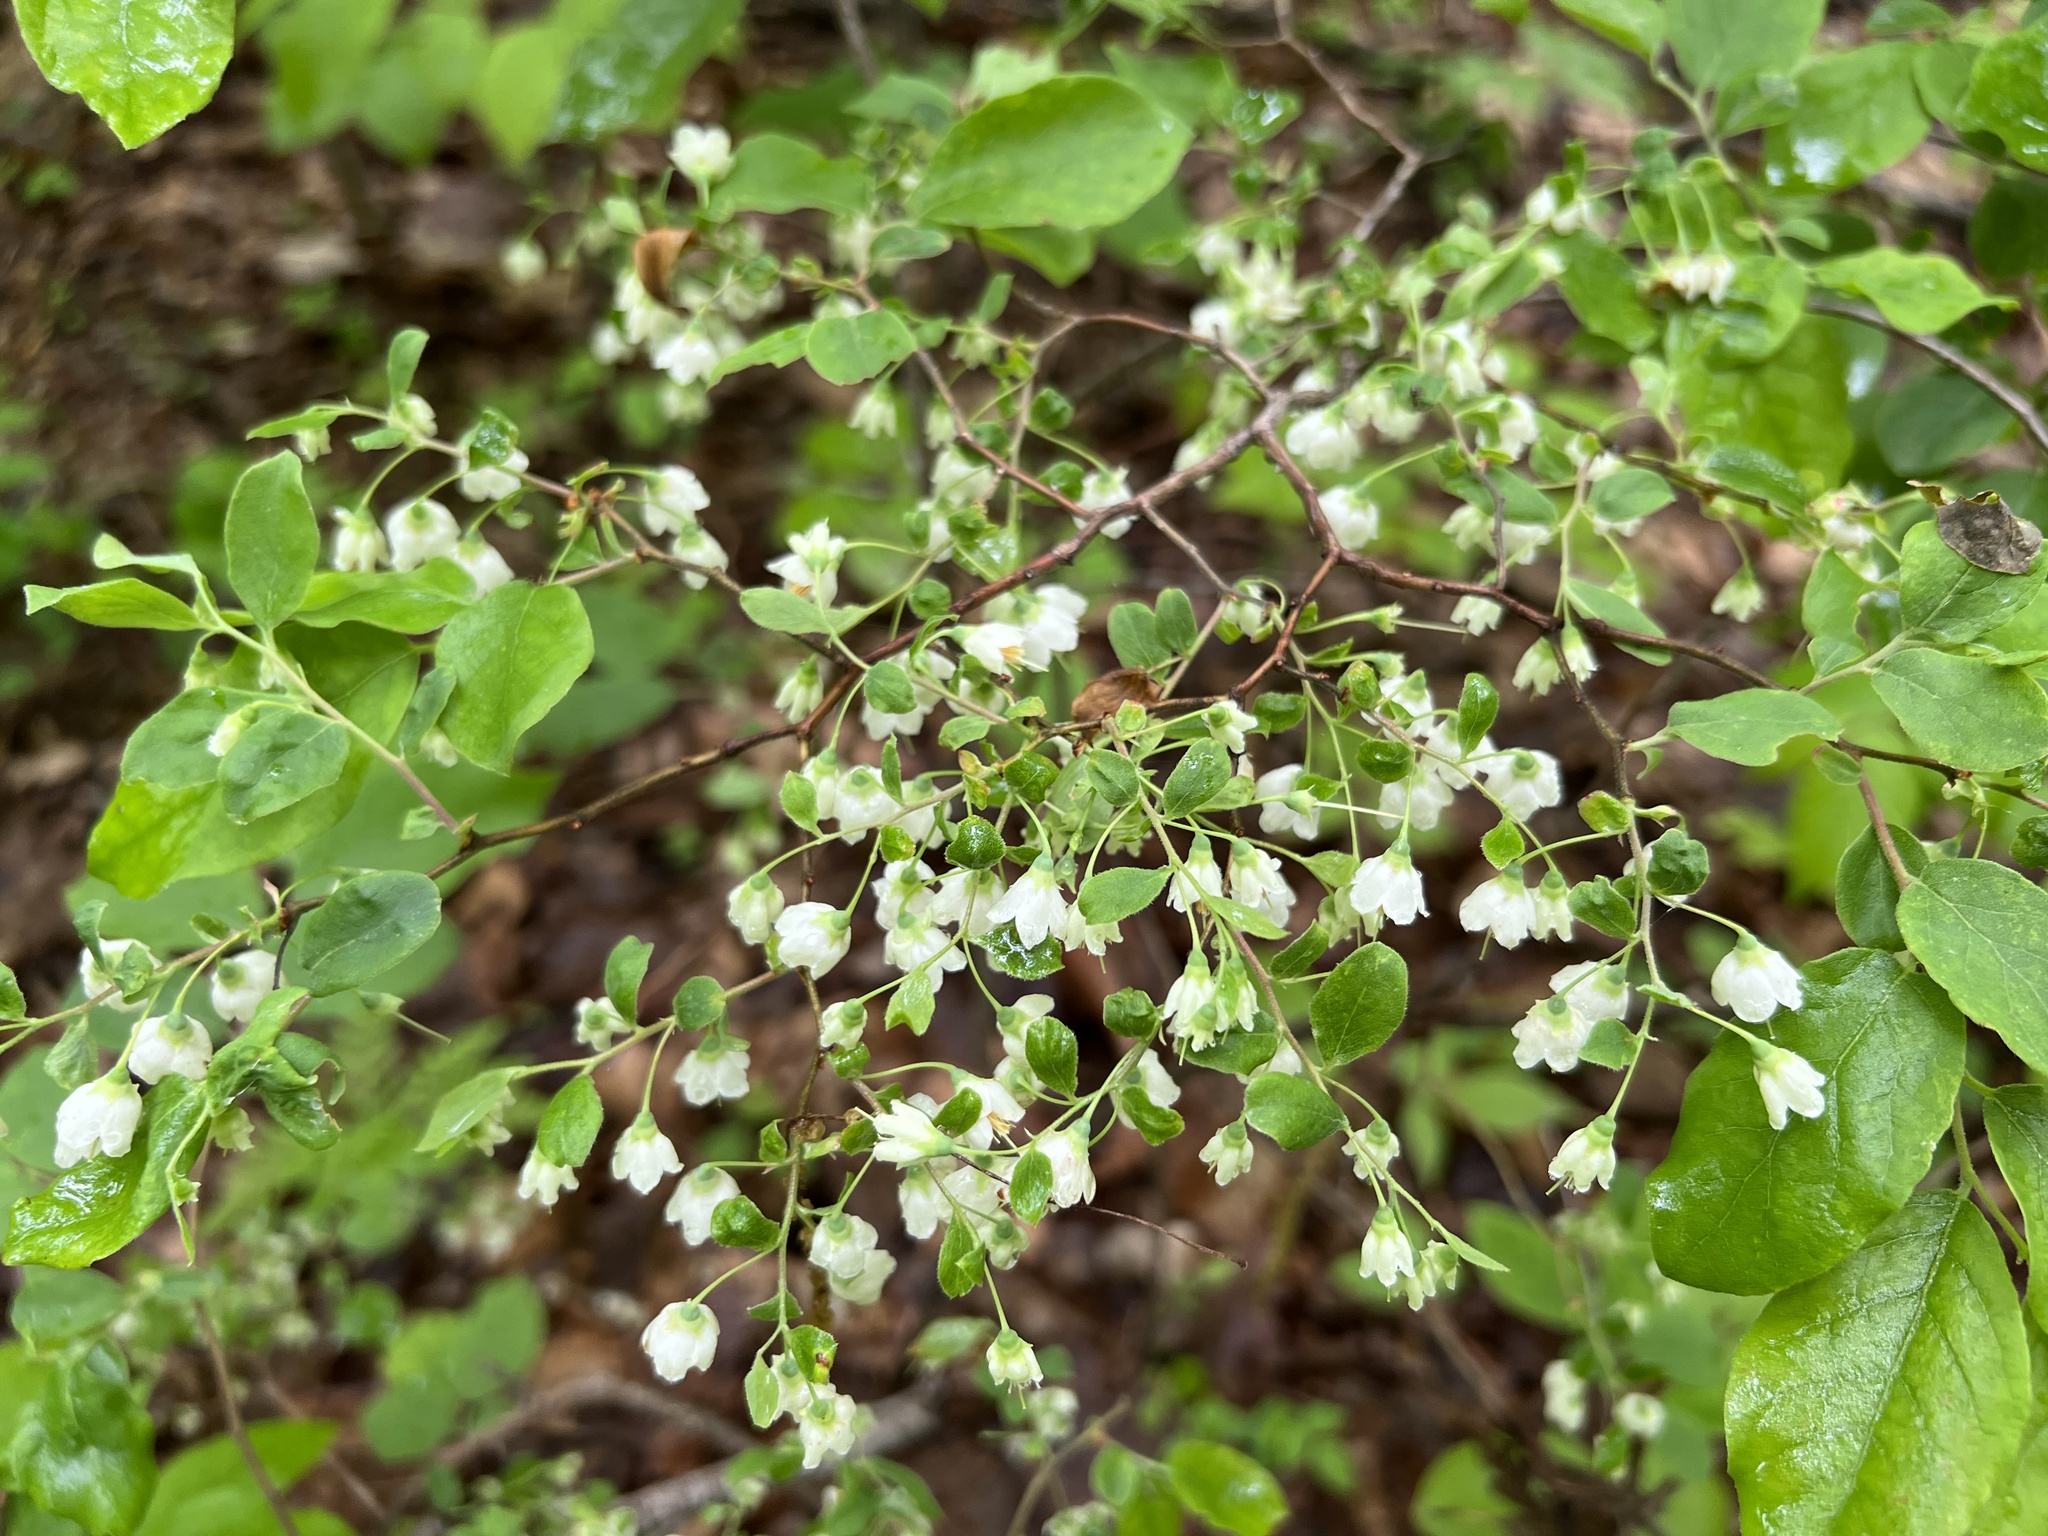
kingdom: Plantae
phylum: Tracheophyta
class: Magnoliopsida
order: Ericales
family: Ericaceae
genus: Vaccinium
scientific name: Vaccinium stamineum
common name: Deerberry
